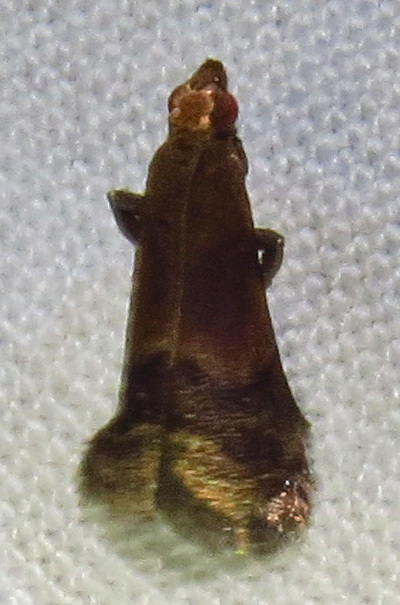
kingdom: Animalia
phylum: Arthropoda
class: Insecta
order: Lepidoptera
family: Pyralidae
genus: Eulogia
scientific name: Eulogia ochrifrontella
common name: Broad-banded eulogia moth
